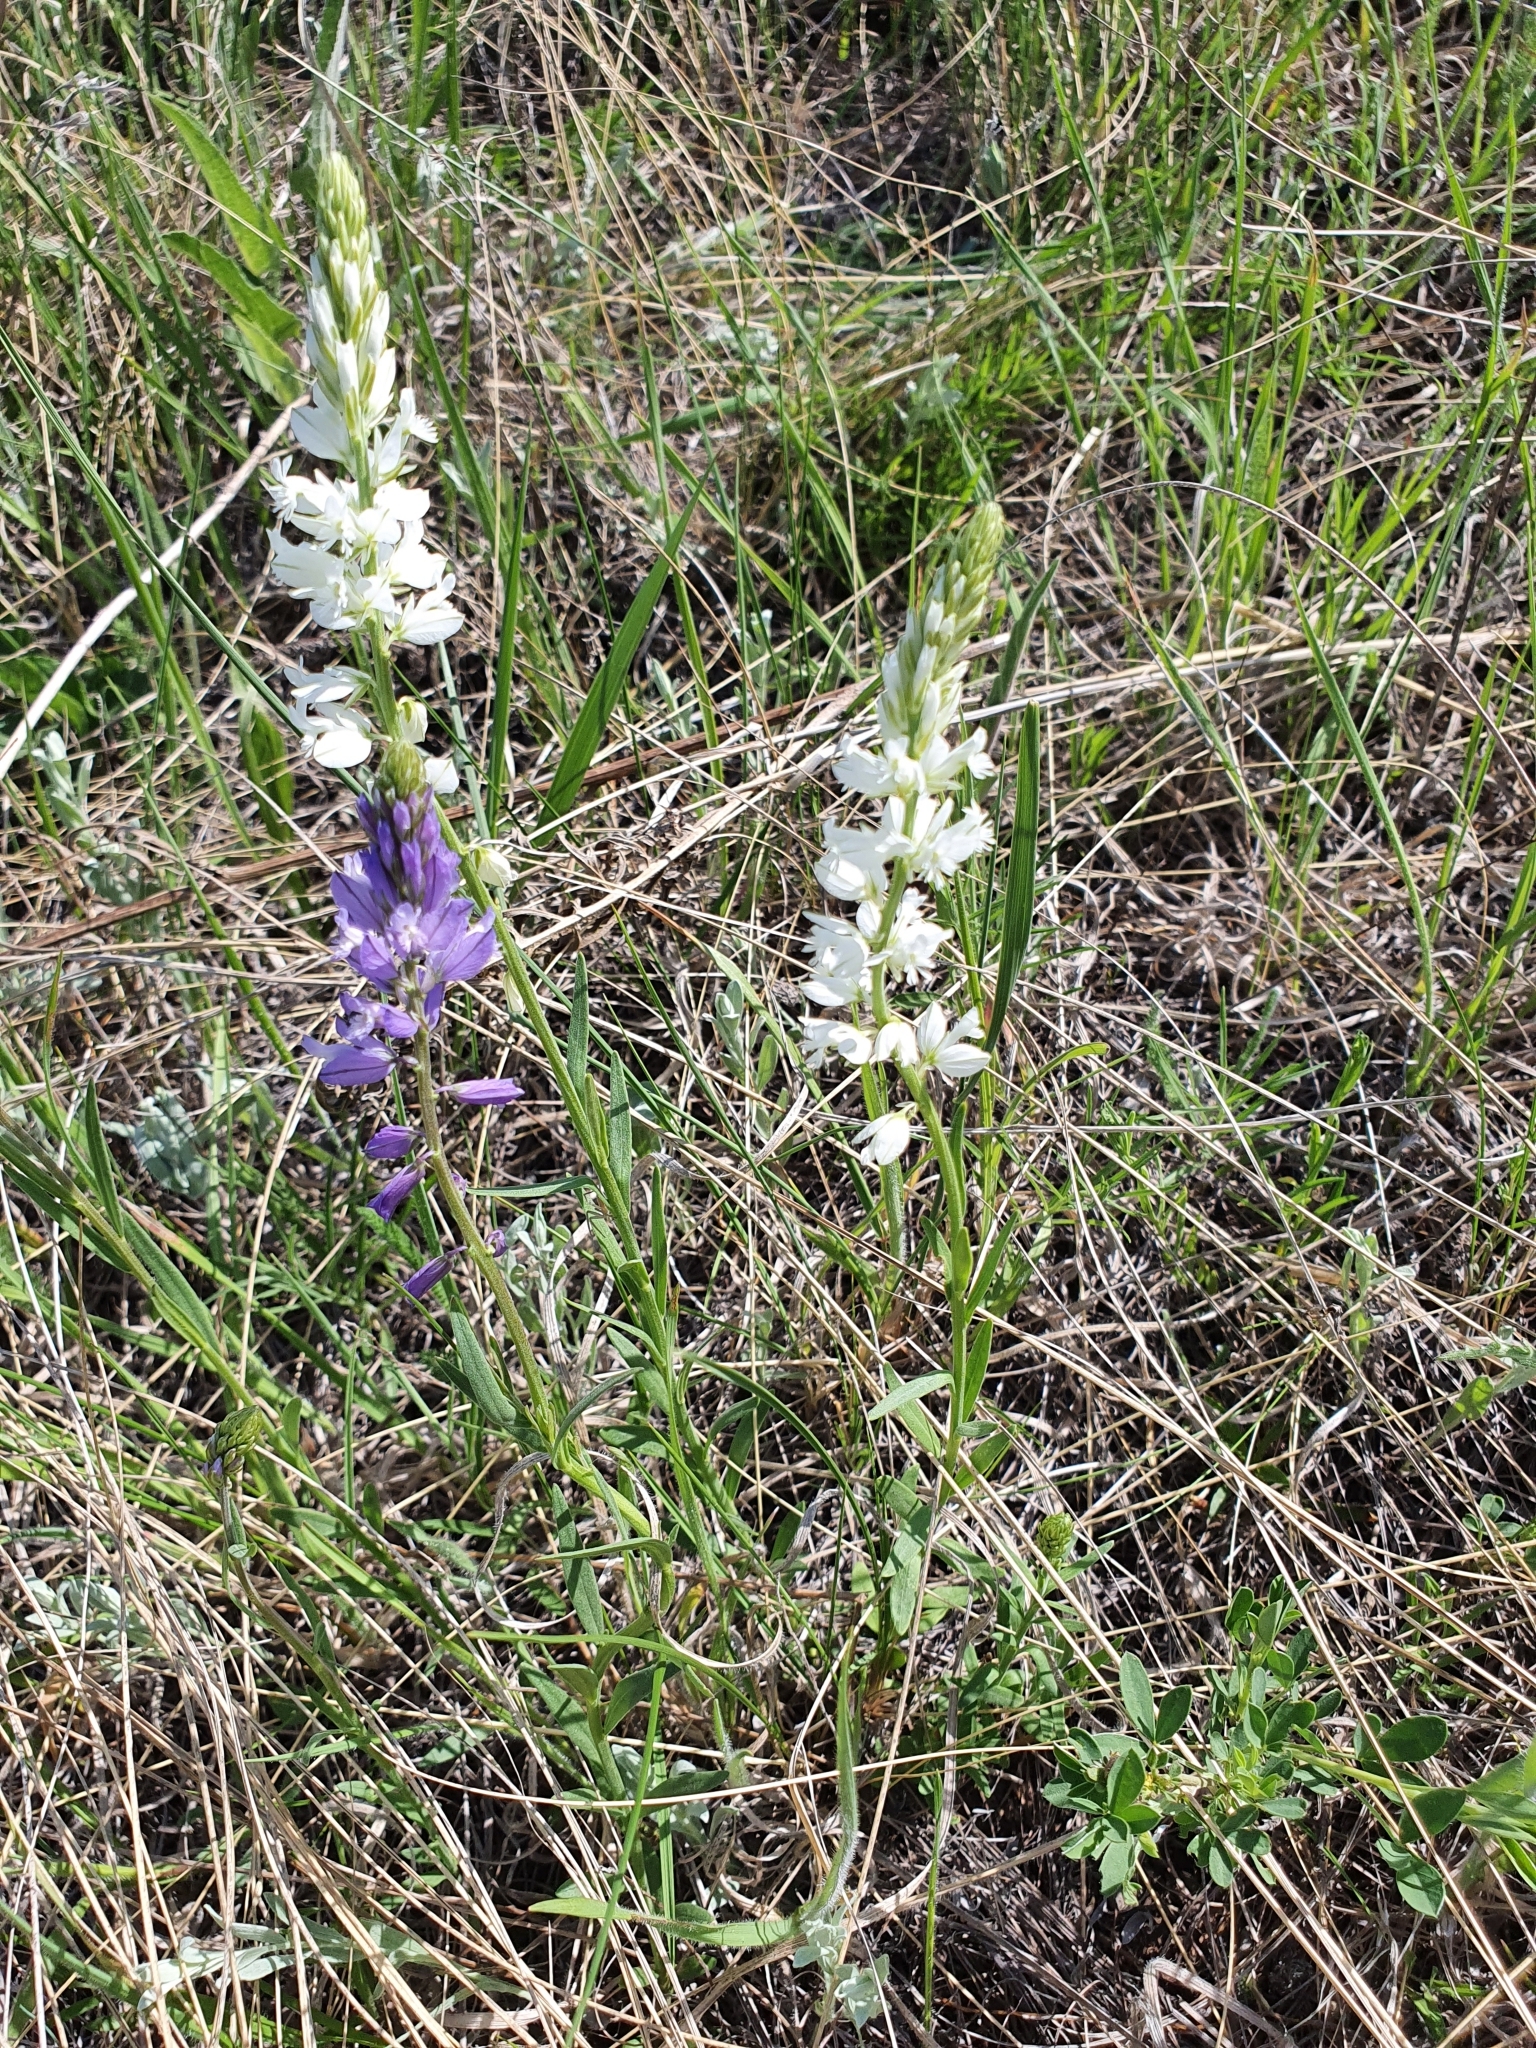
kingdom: Plantae
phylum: Tracheophyta
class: Magnoliopsida
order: Fabales
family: Polygalaceae
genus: Polygala
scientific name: Polygala comosa
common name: Tufted milkwort
